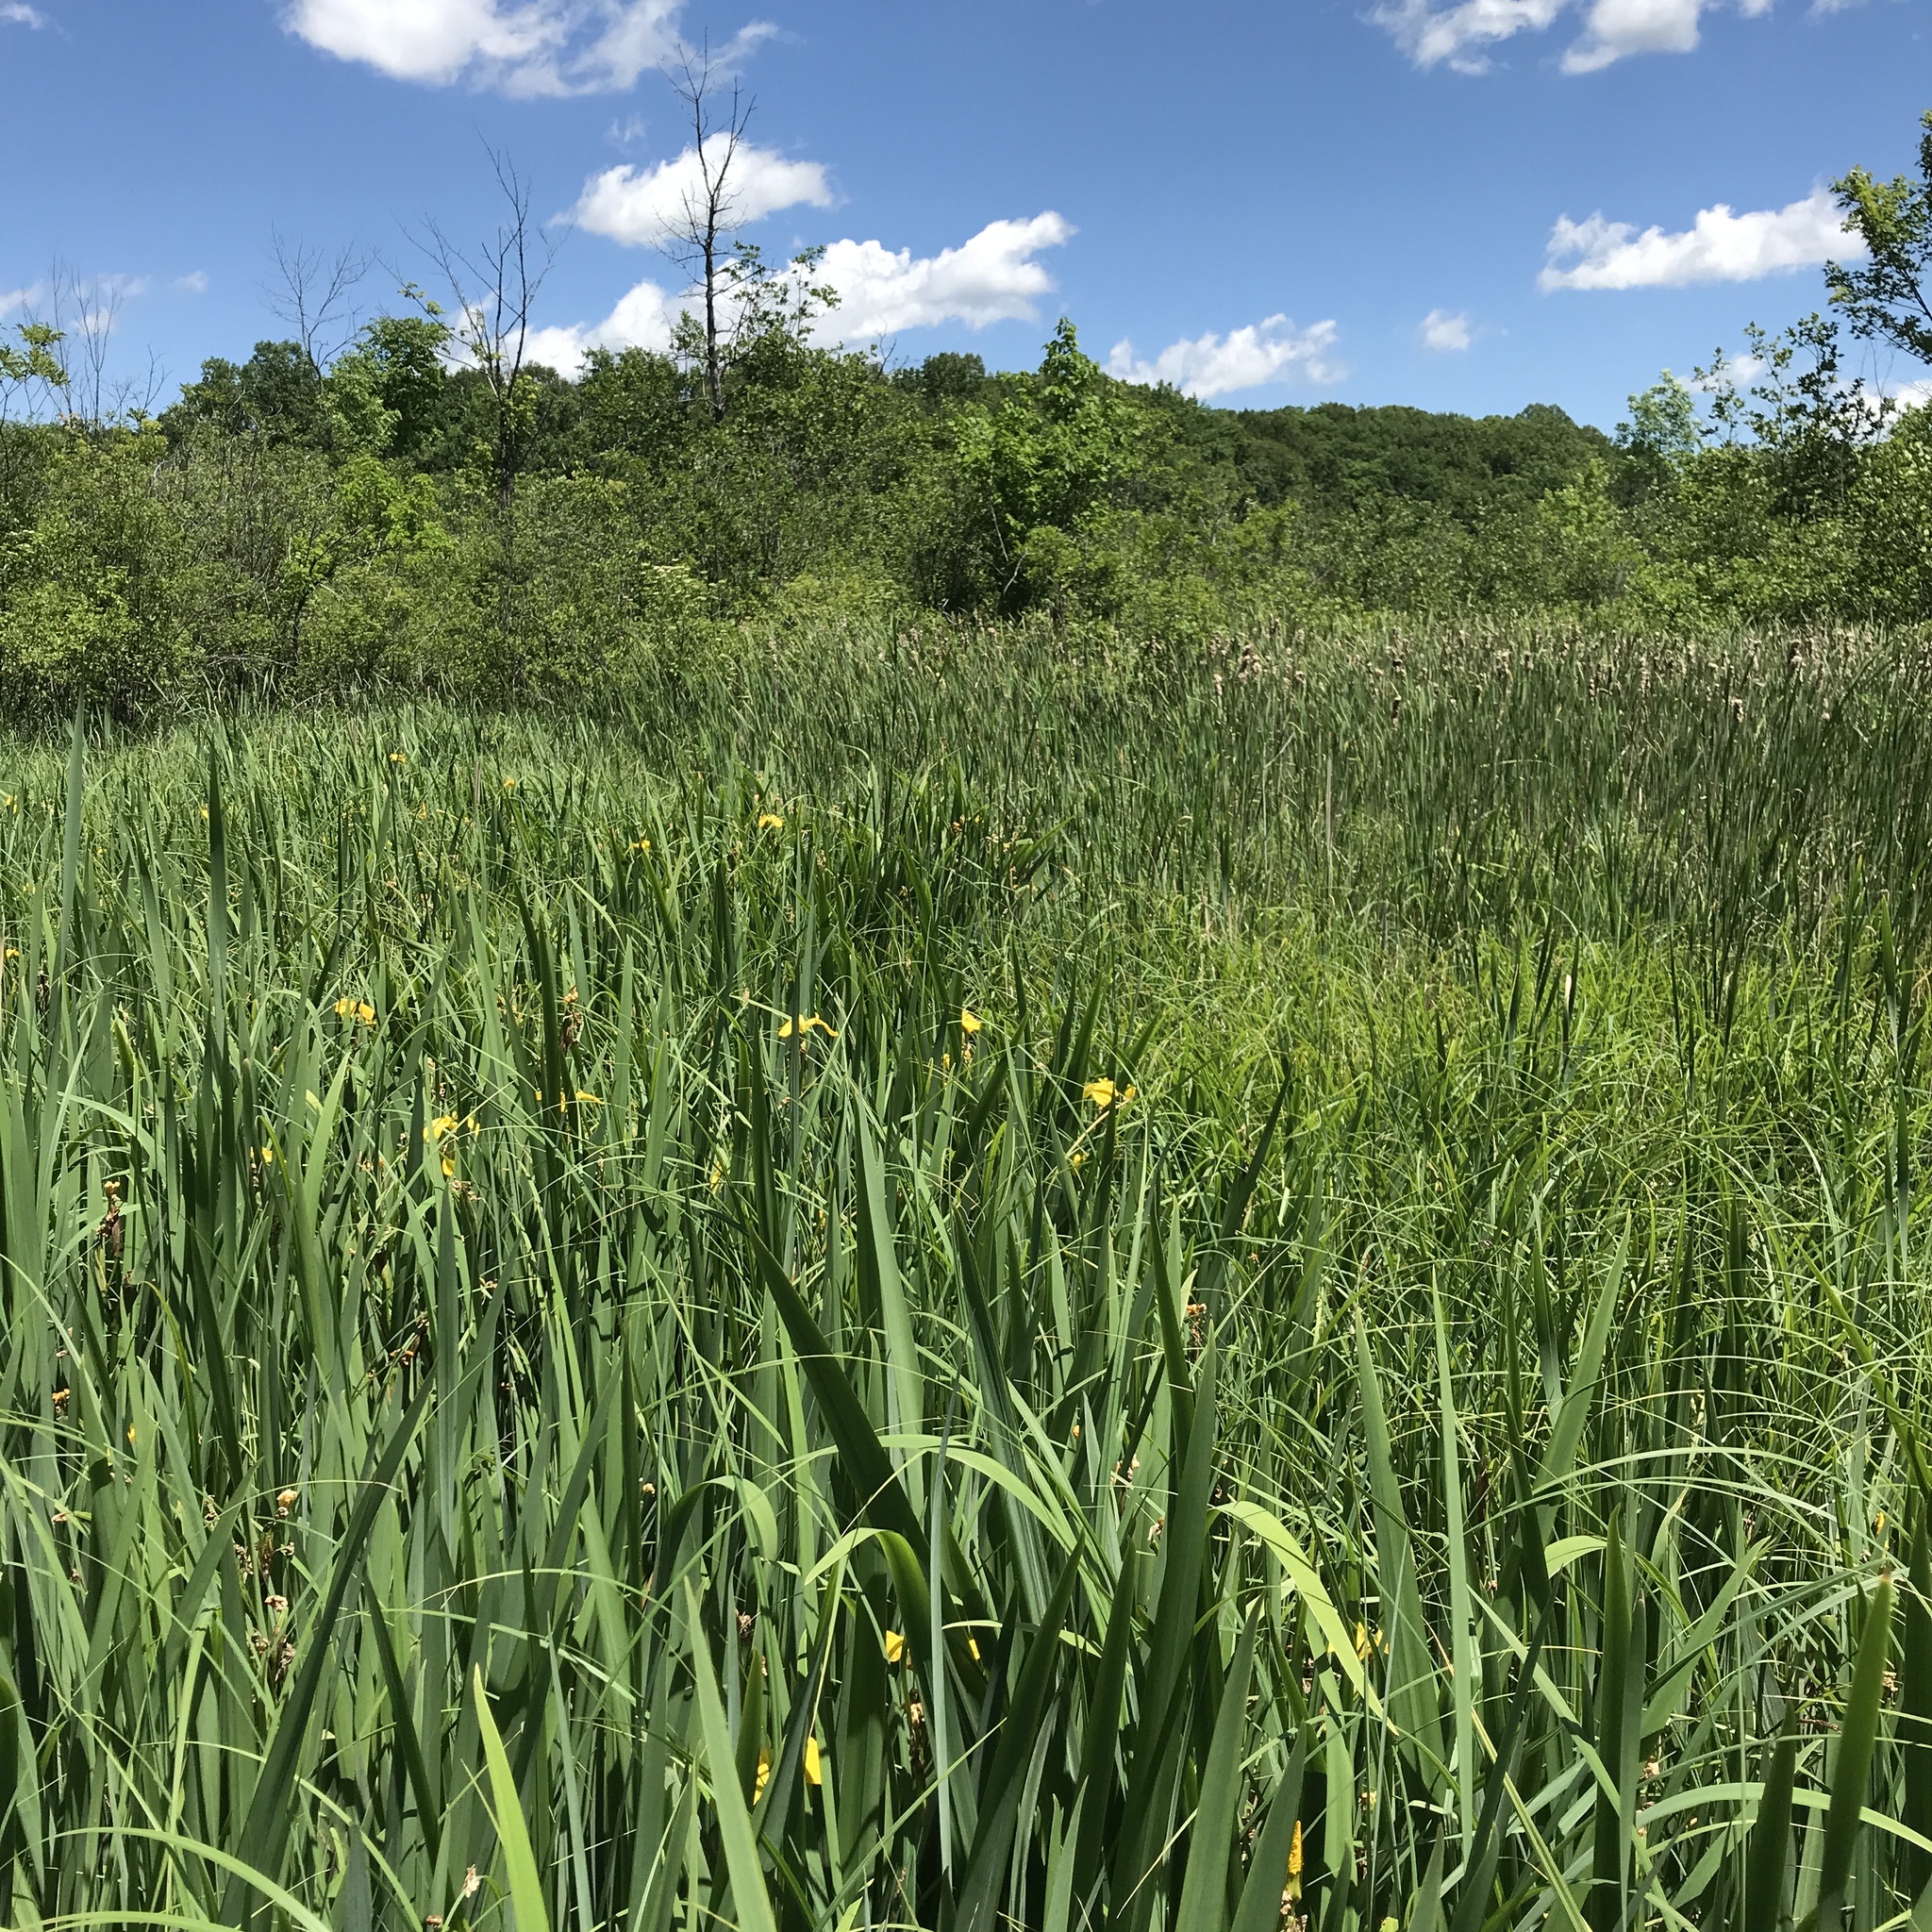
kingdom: Plantae
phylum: Tracheophyta
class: Liliopsida
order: Asparagales
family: Iridaceae
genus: Iris
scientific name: Iris pseudacorus
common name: Yellow flag
